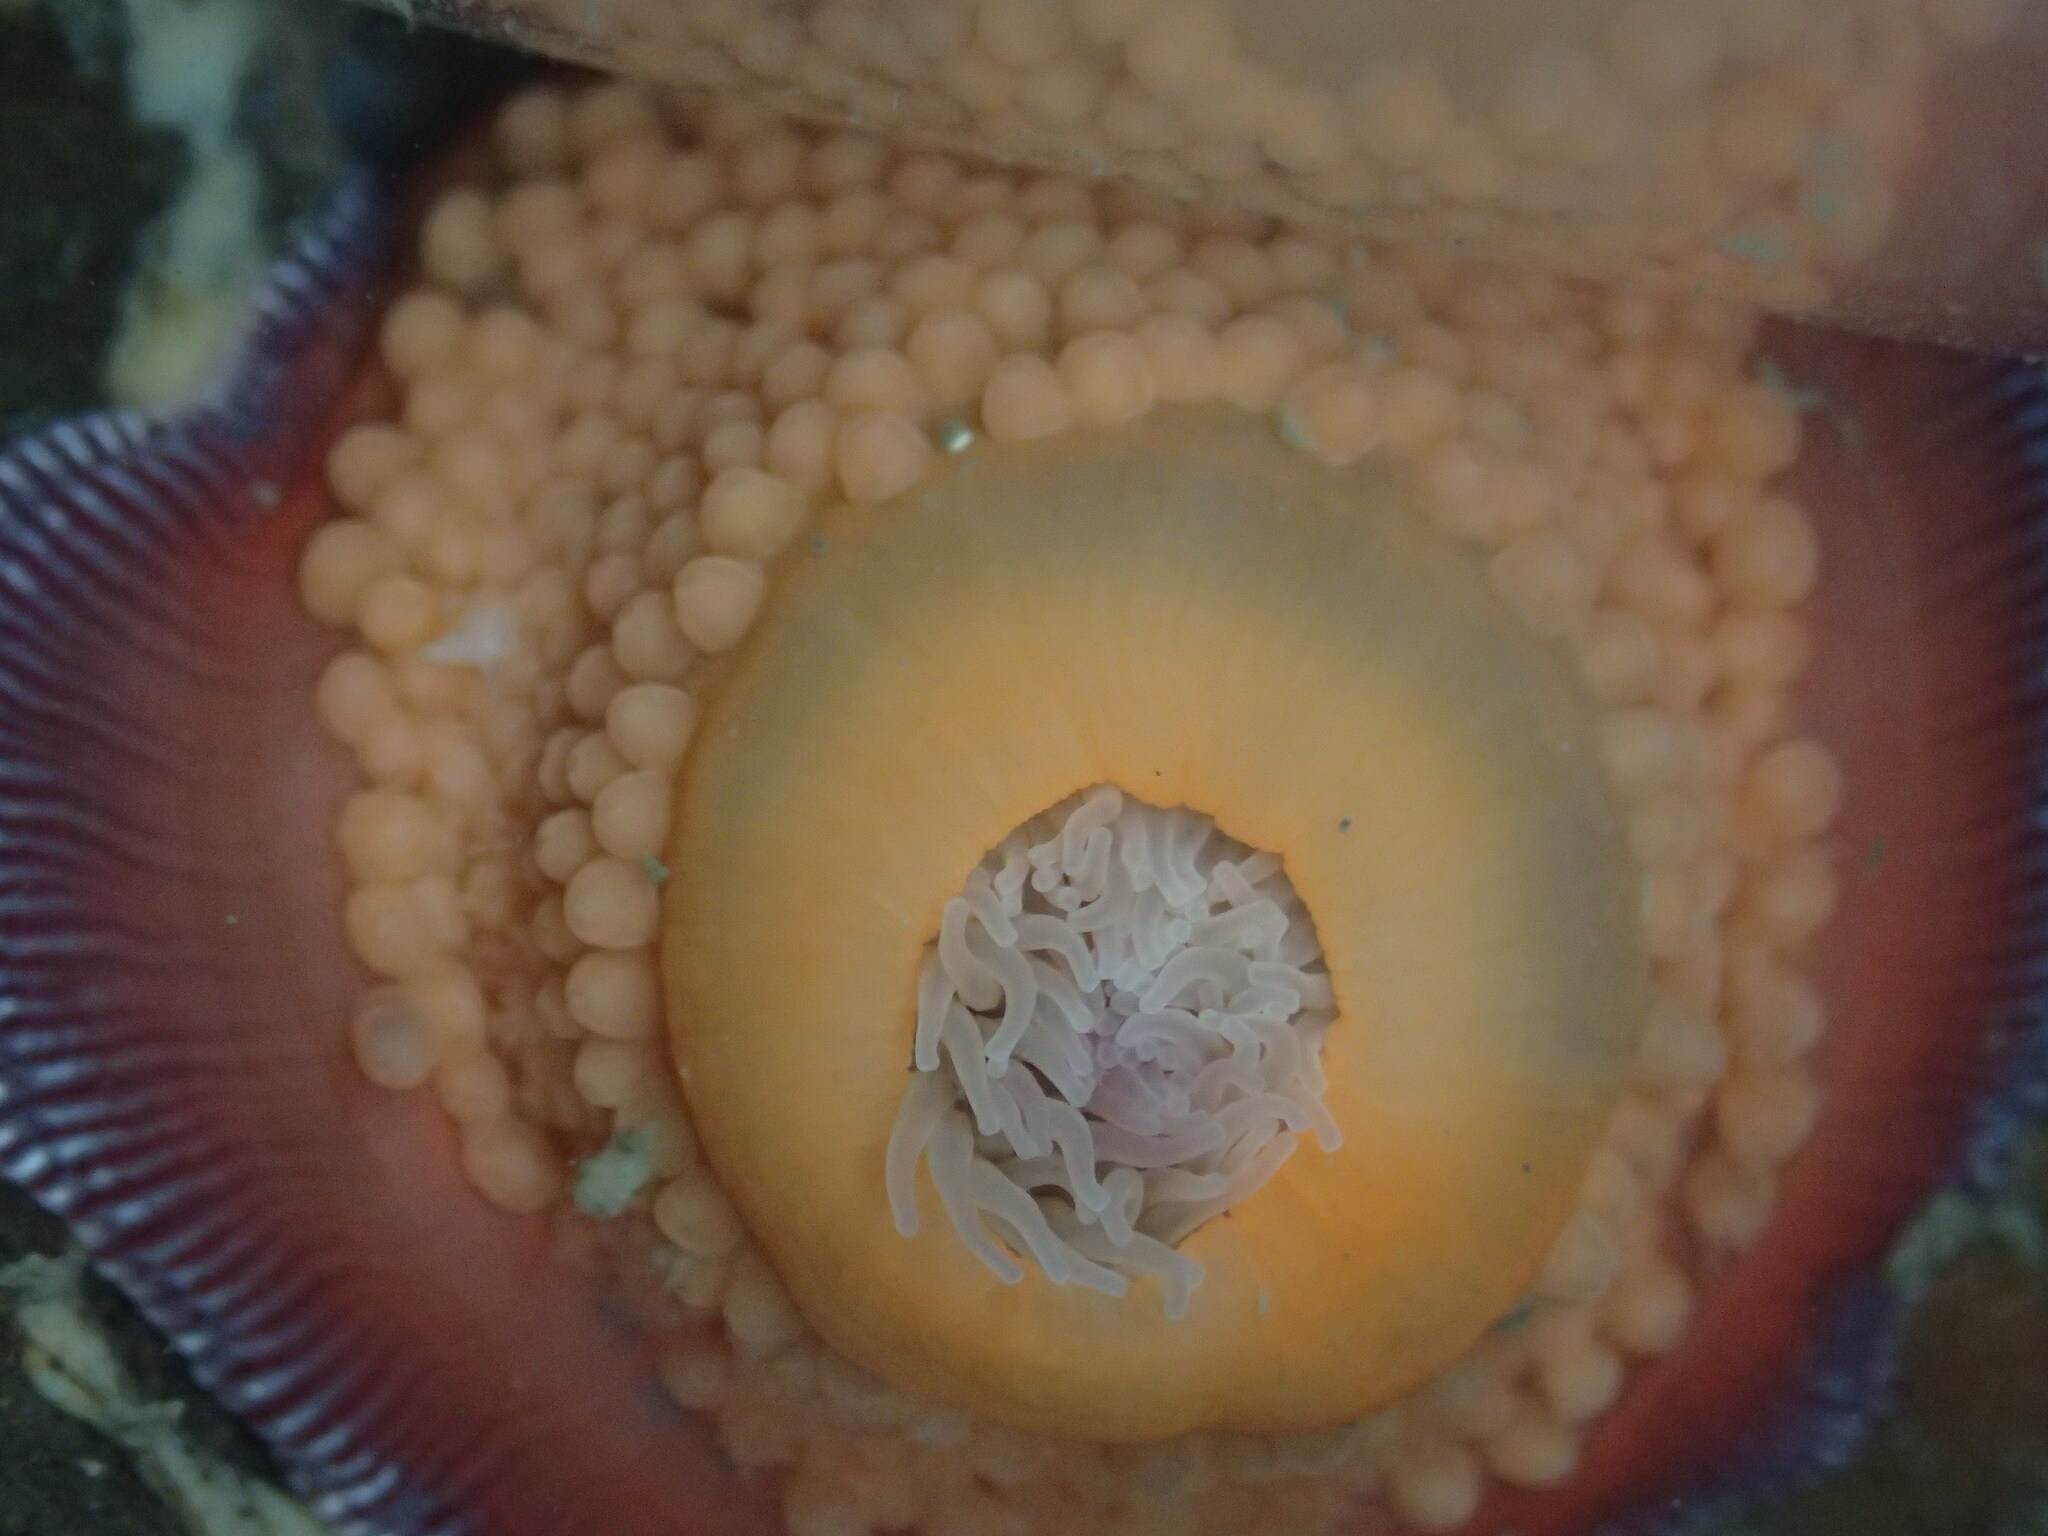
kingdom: Animalia
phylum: Cnidaria
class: Anthozoa
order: Actiniaria
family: Actiniidae
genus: Epiactis
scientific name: Epiactis lisbethae
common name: Giant brooding anemone
